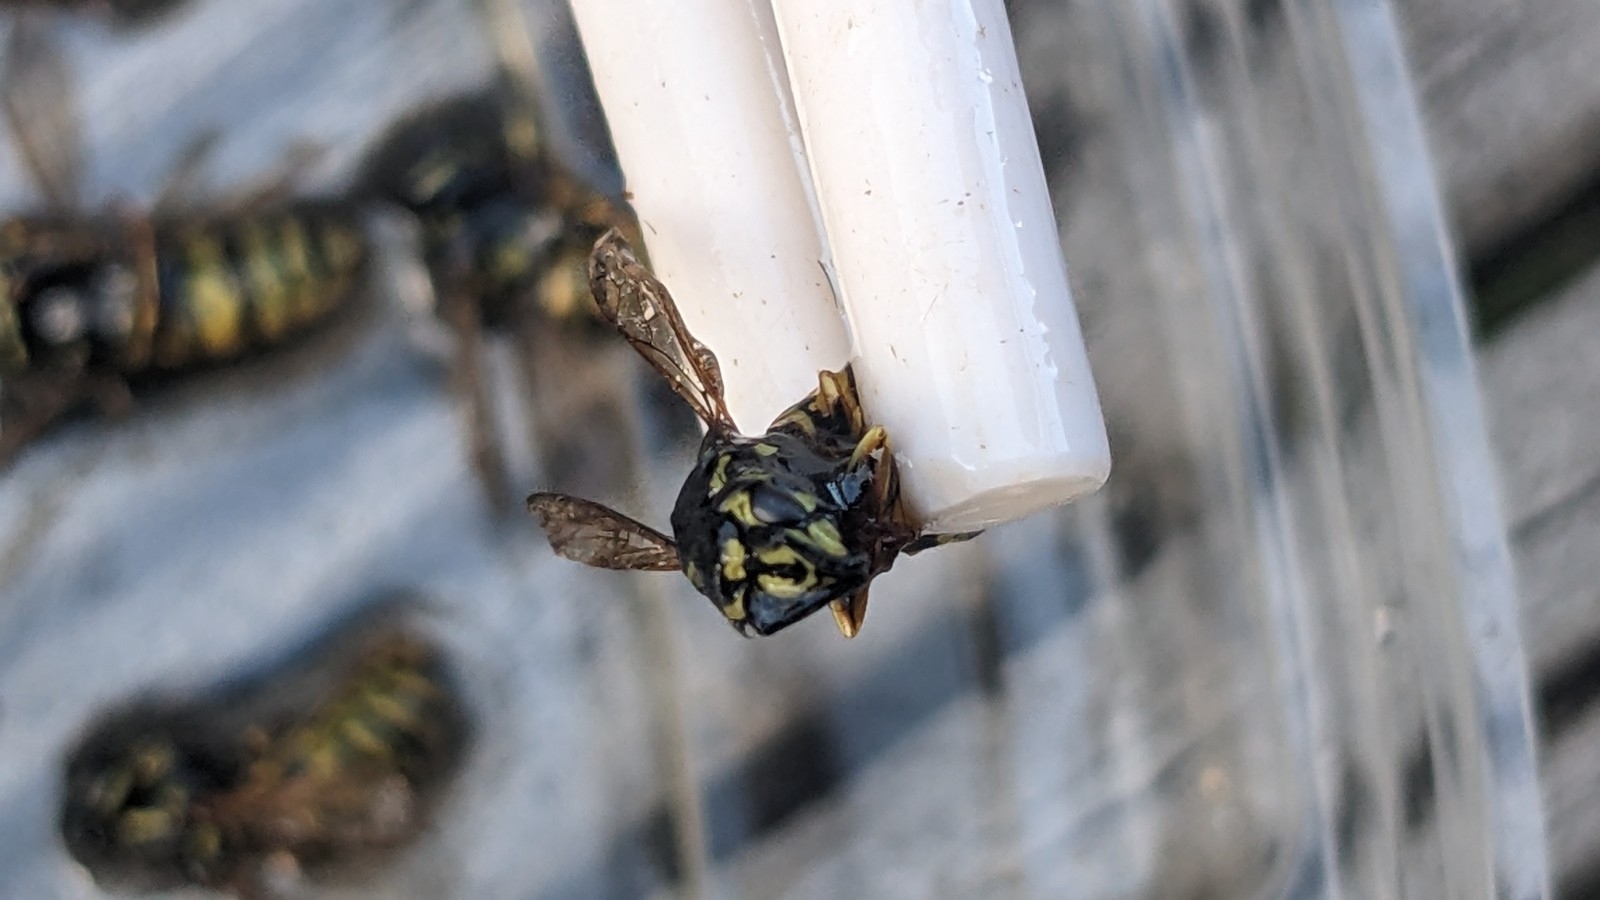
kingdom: Animalia
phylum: Arthropoda
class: Insecta
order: Hymenoptera
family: Vespidae
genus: Vespula
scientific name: Vespula vulgaris
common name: Common wasp
